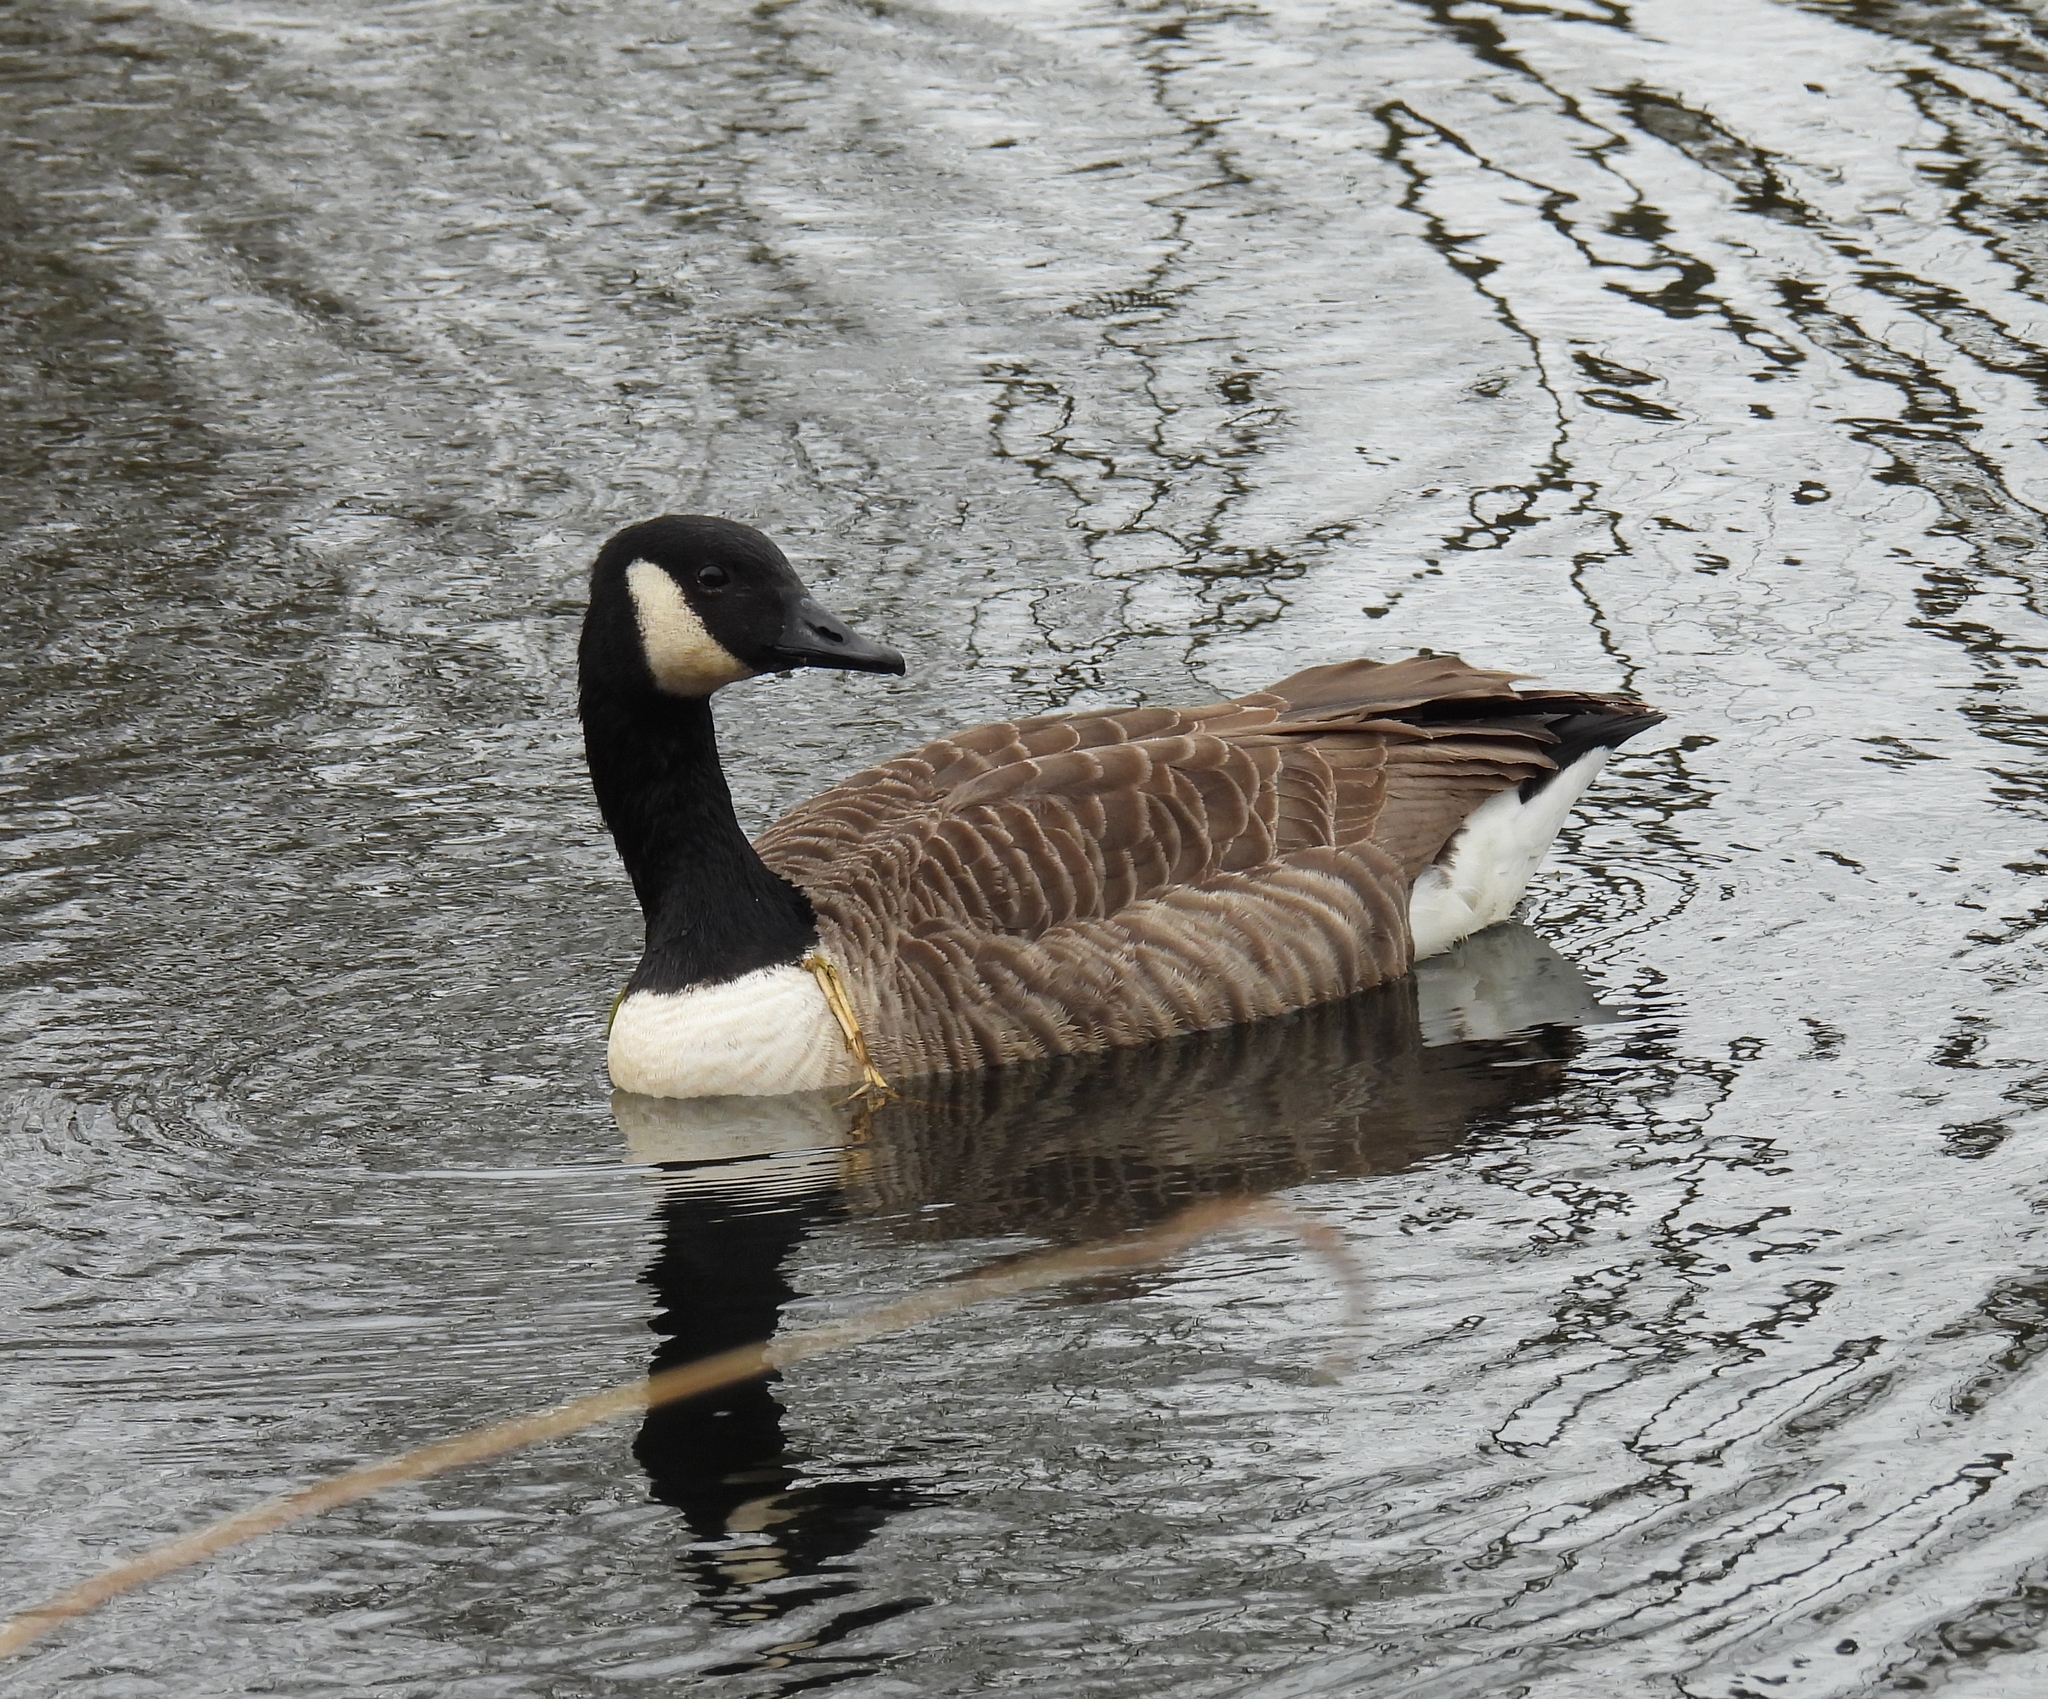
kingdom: Animalia
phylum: Chordata
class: Aves
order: Anseriformes
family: Anatidae
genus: Branta
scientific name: Branta canadensis
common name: Canada goose
